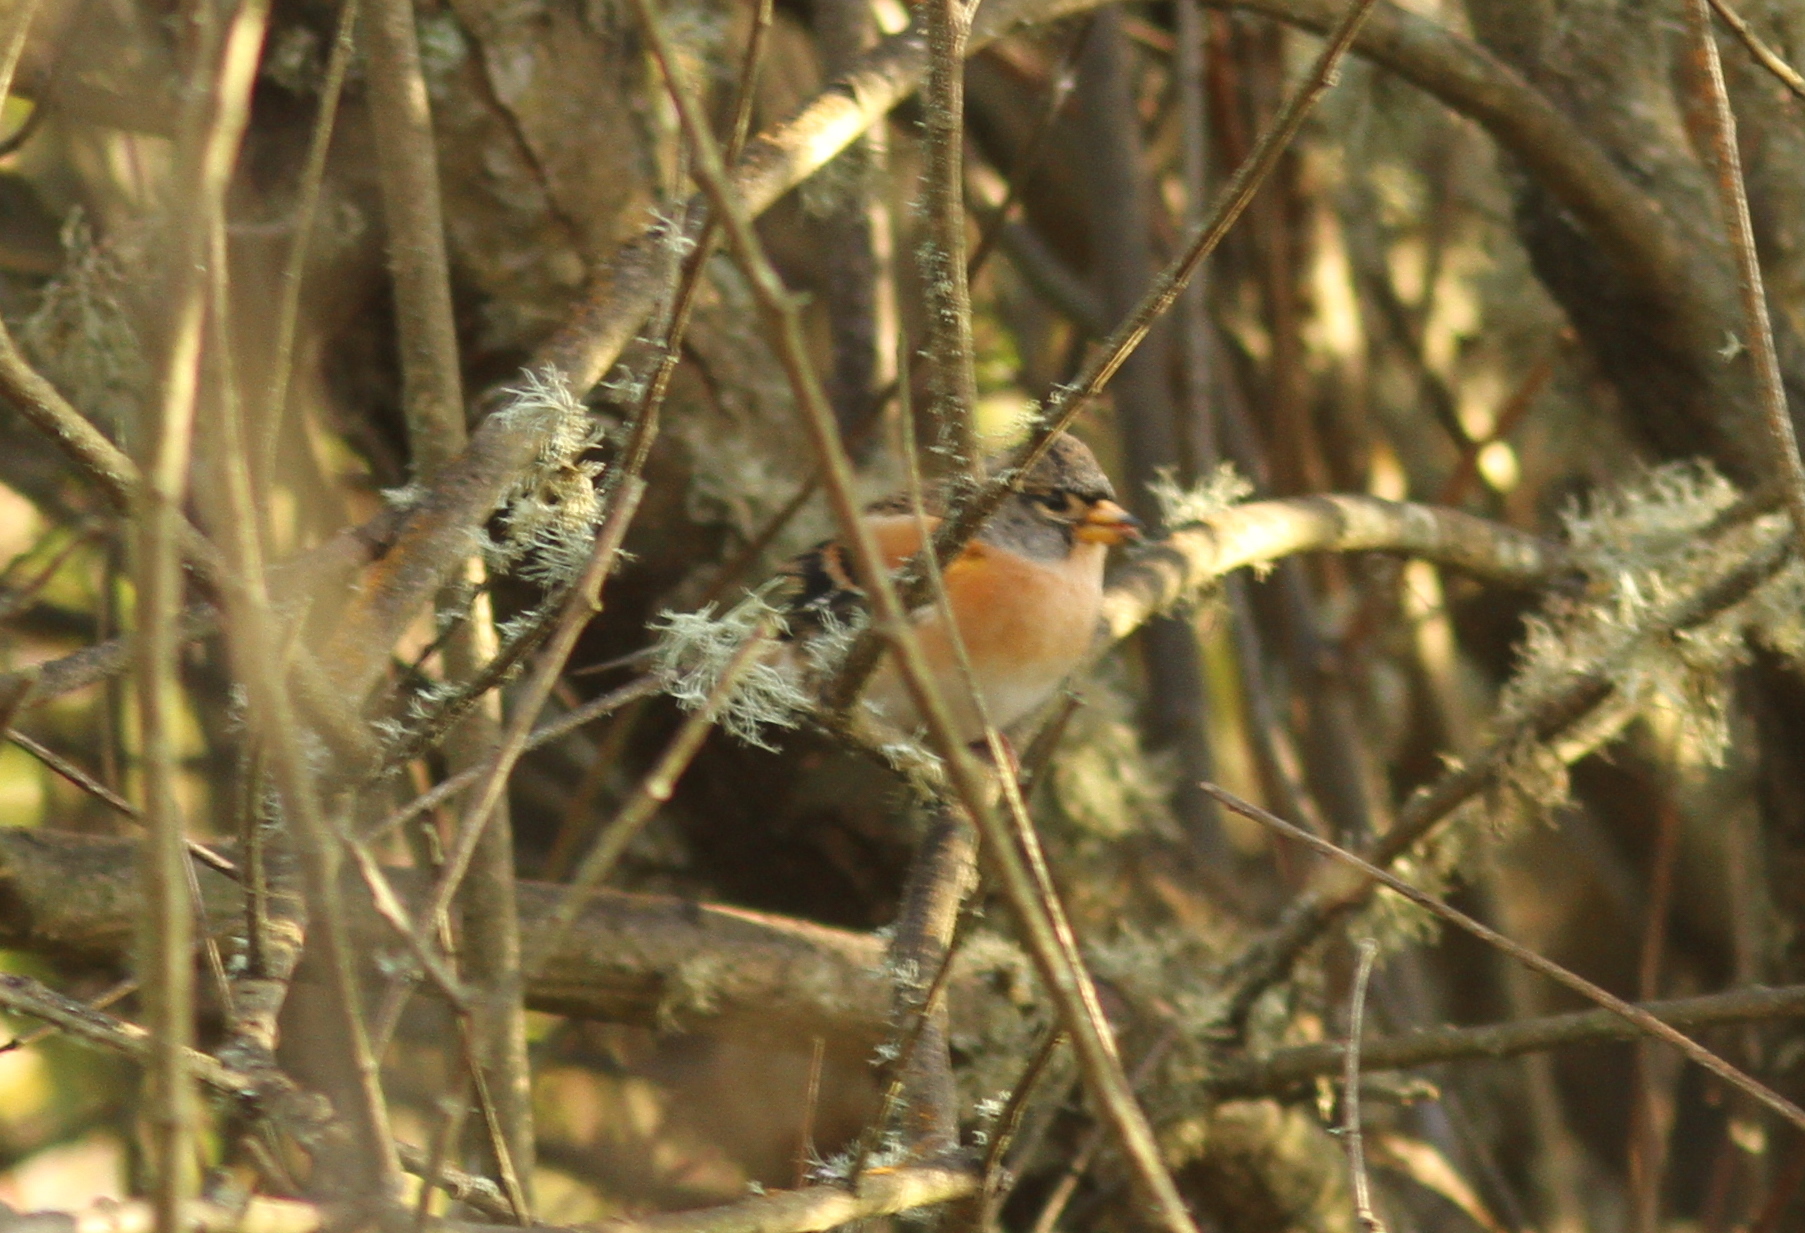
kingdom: Animalia
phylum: Chordata
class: Aves
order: Passeriformes
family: Fringillidae
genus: Fringilla
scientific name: Fringilla montifringilla
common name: Brambling
